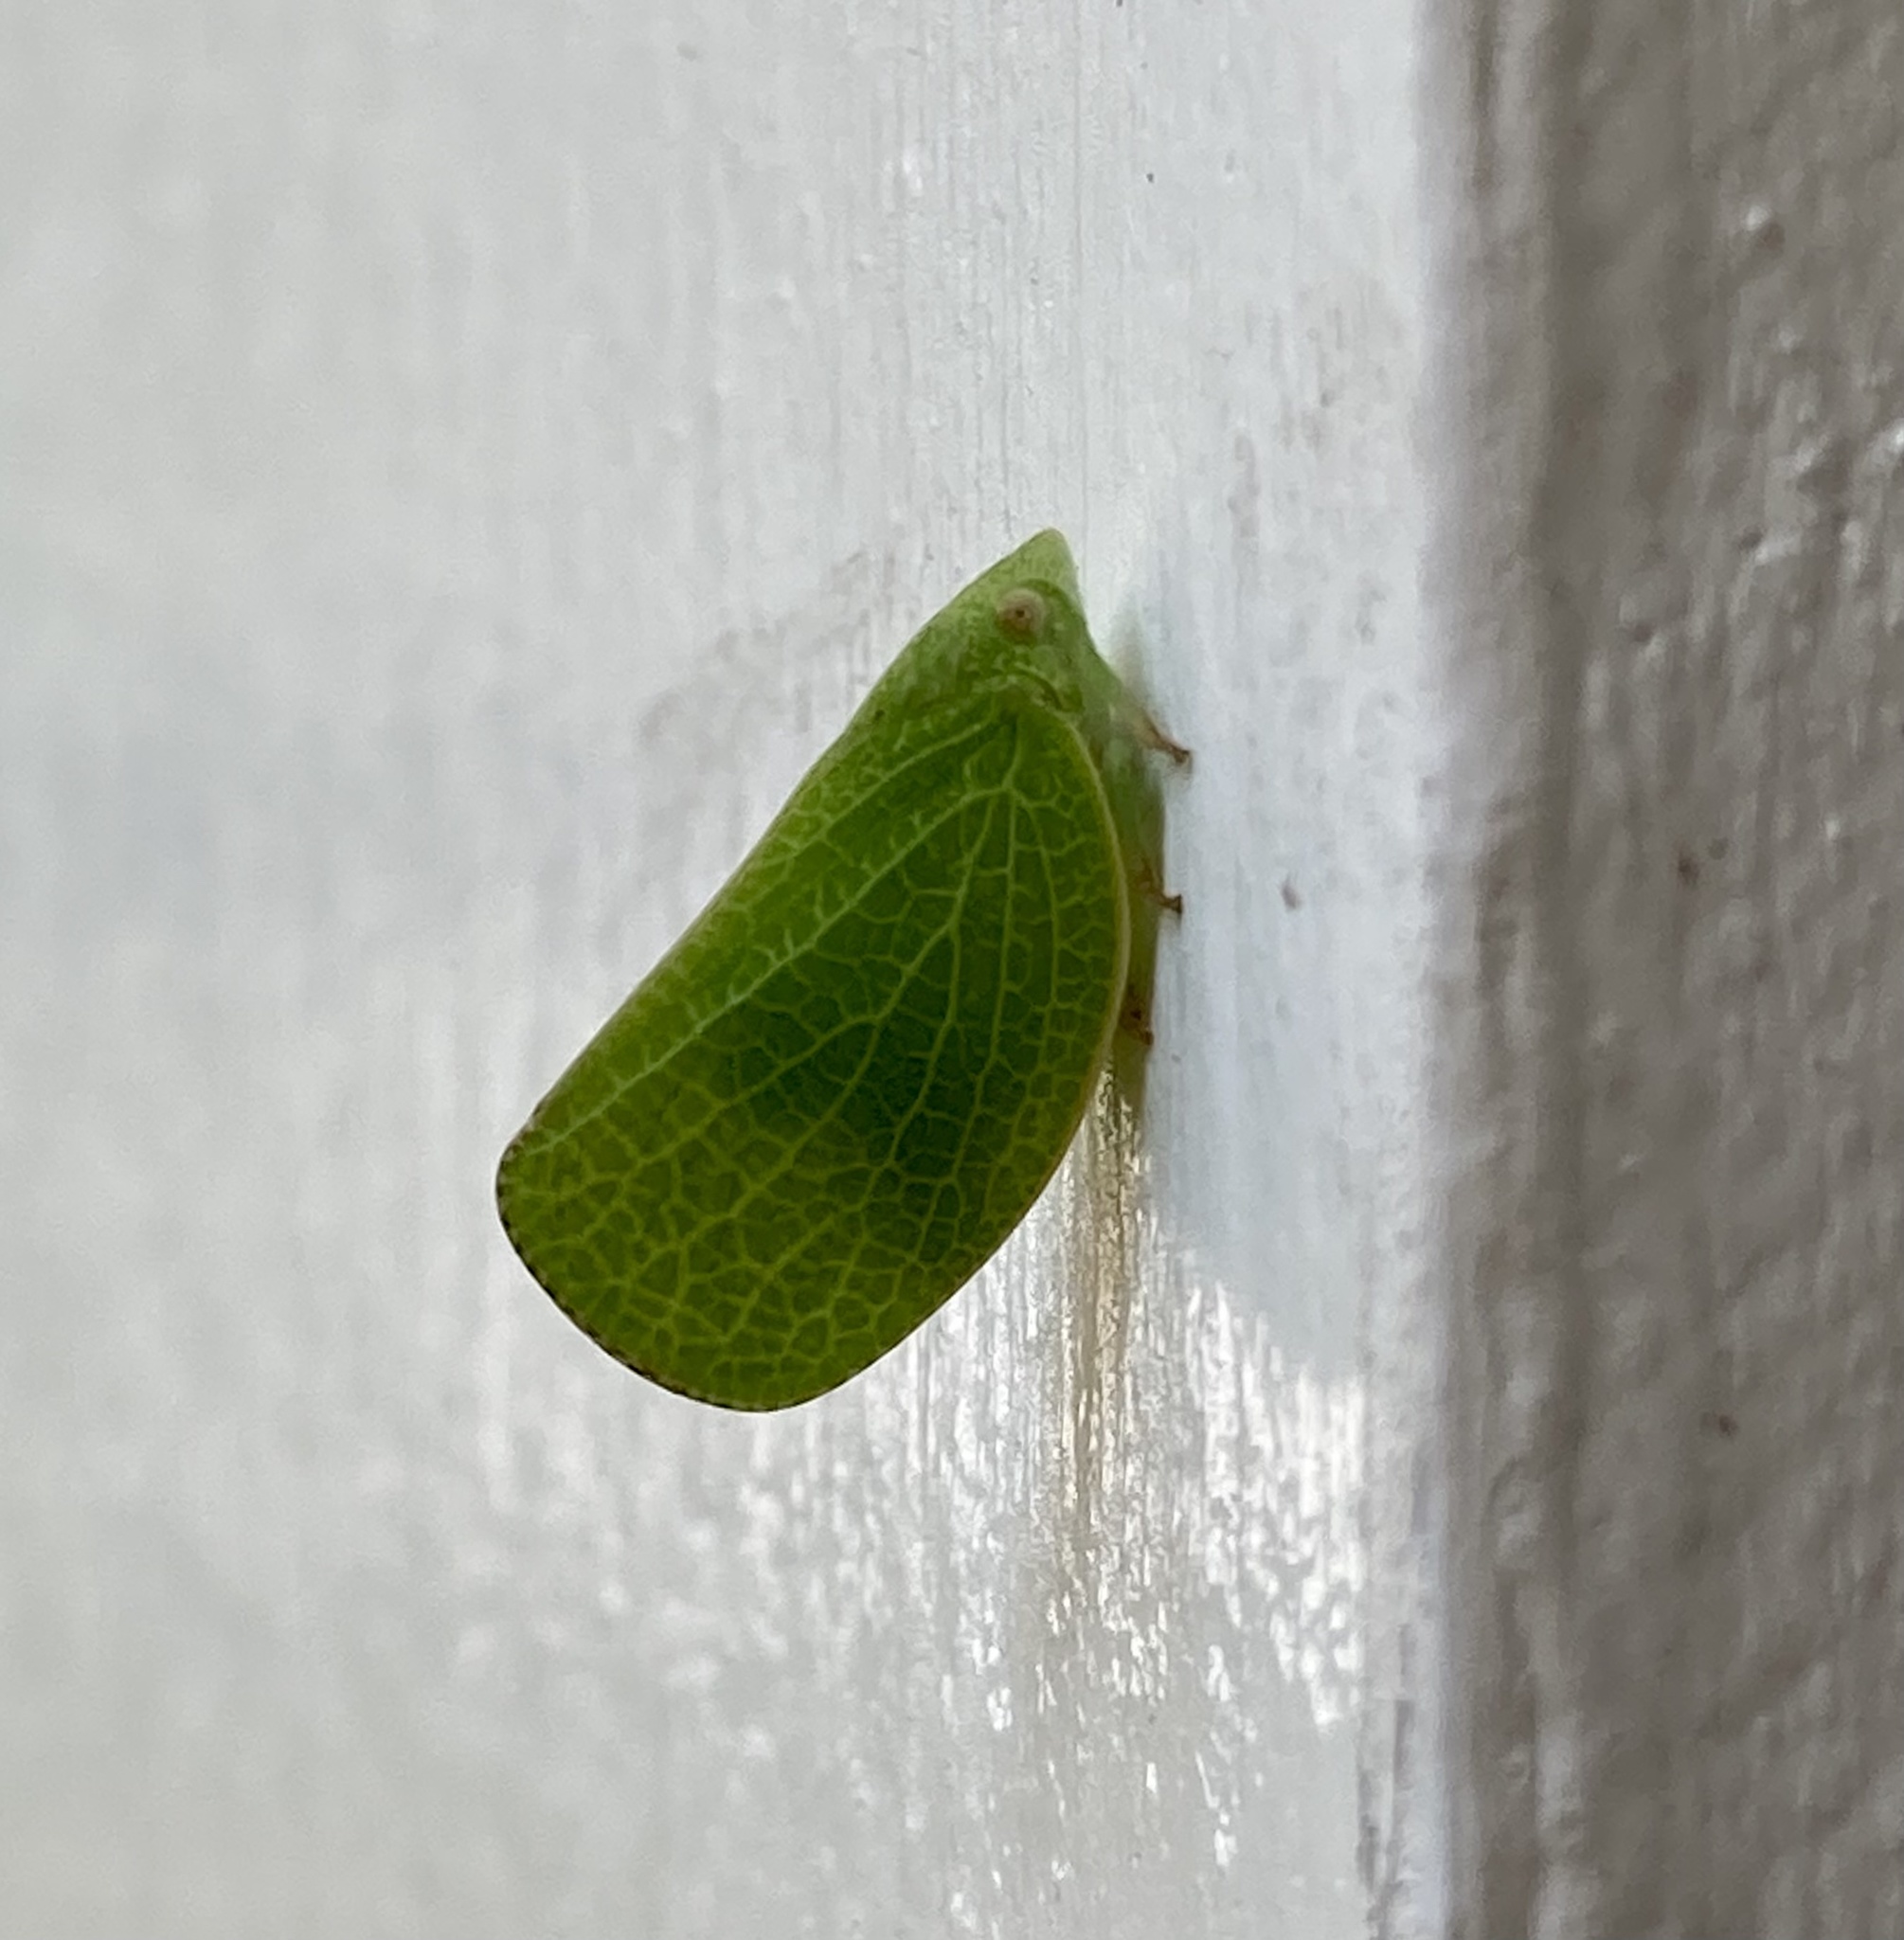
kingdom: Animalia
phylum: Arthropoda
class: Insecta
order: Hemiptera
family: Acanaloniidae
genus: Acanalonia
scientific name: Acanalonia conica
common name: Green cone-headed planthopper
